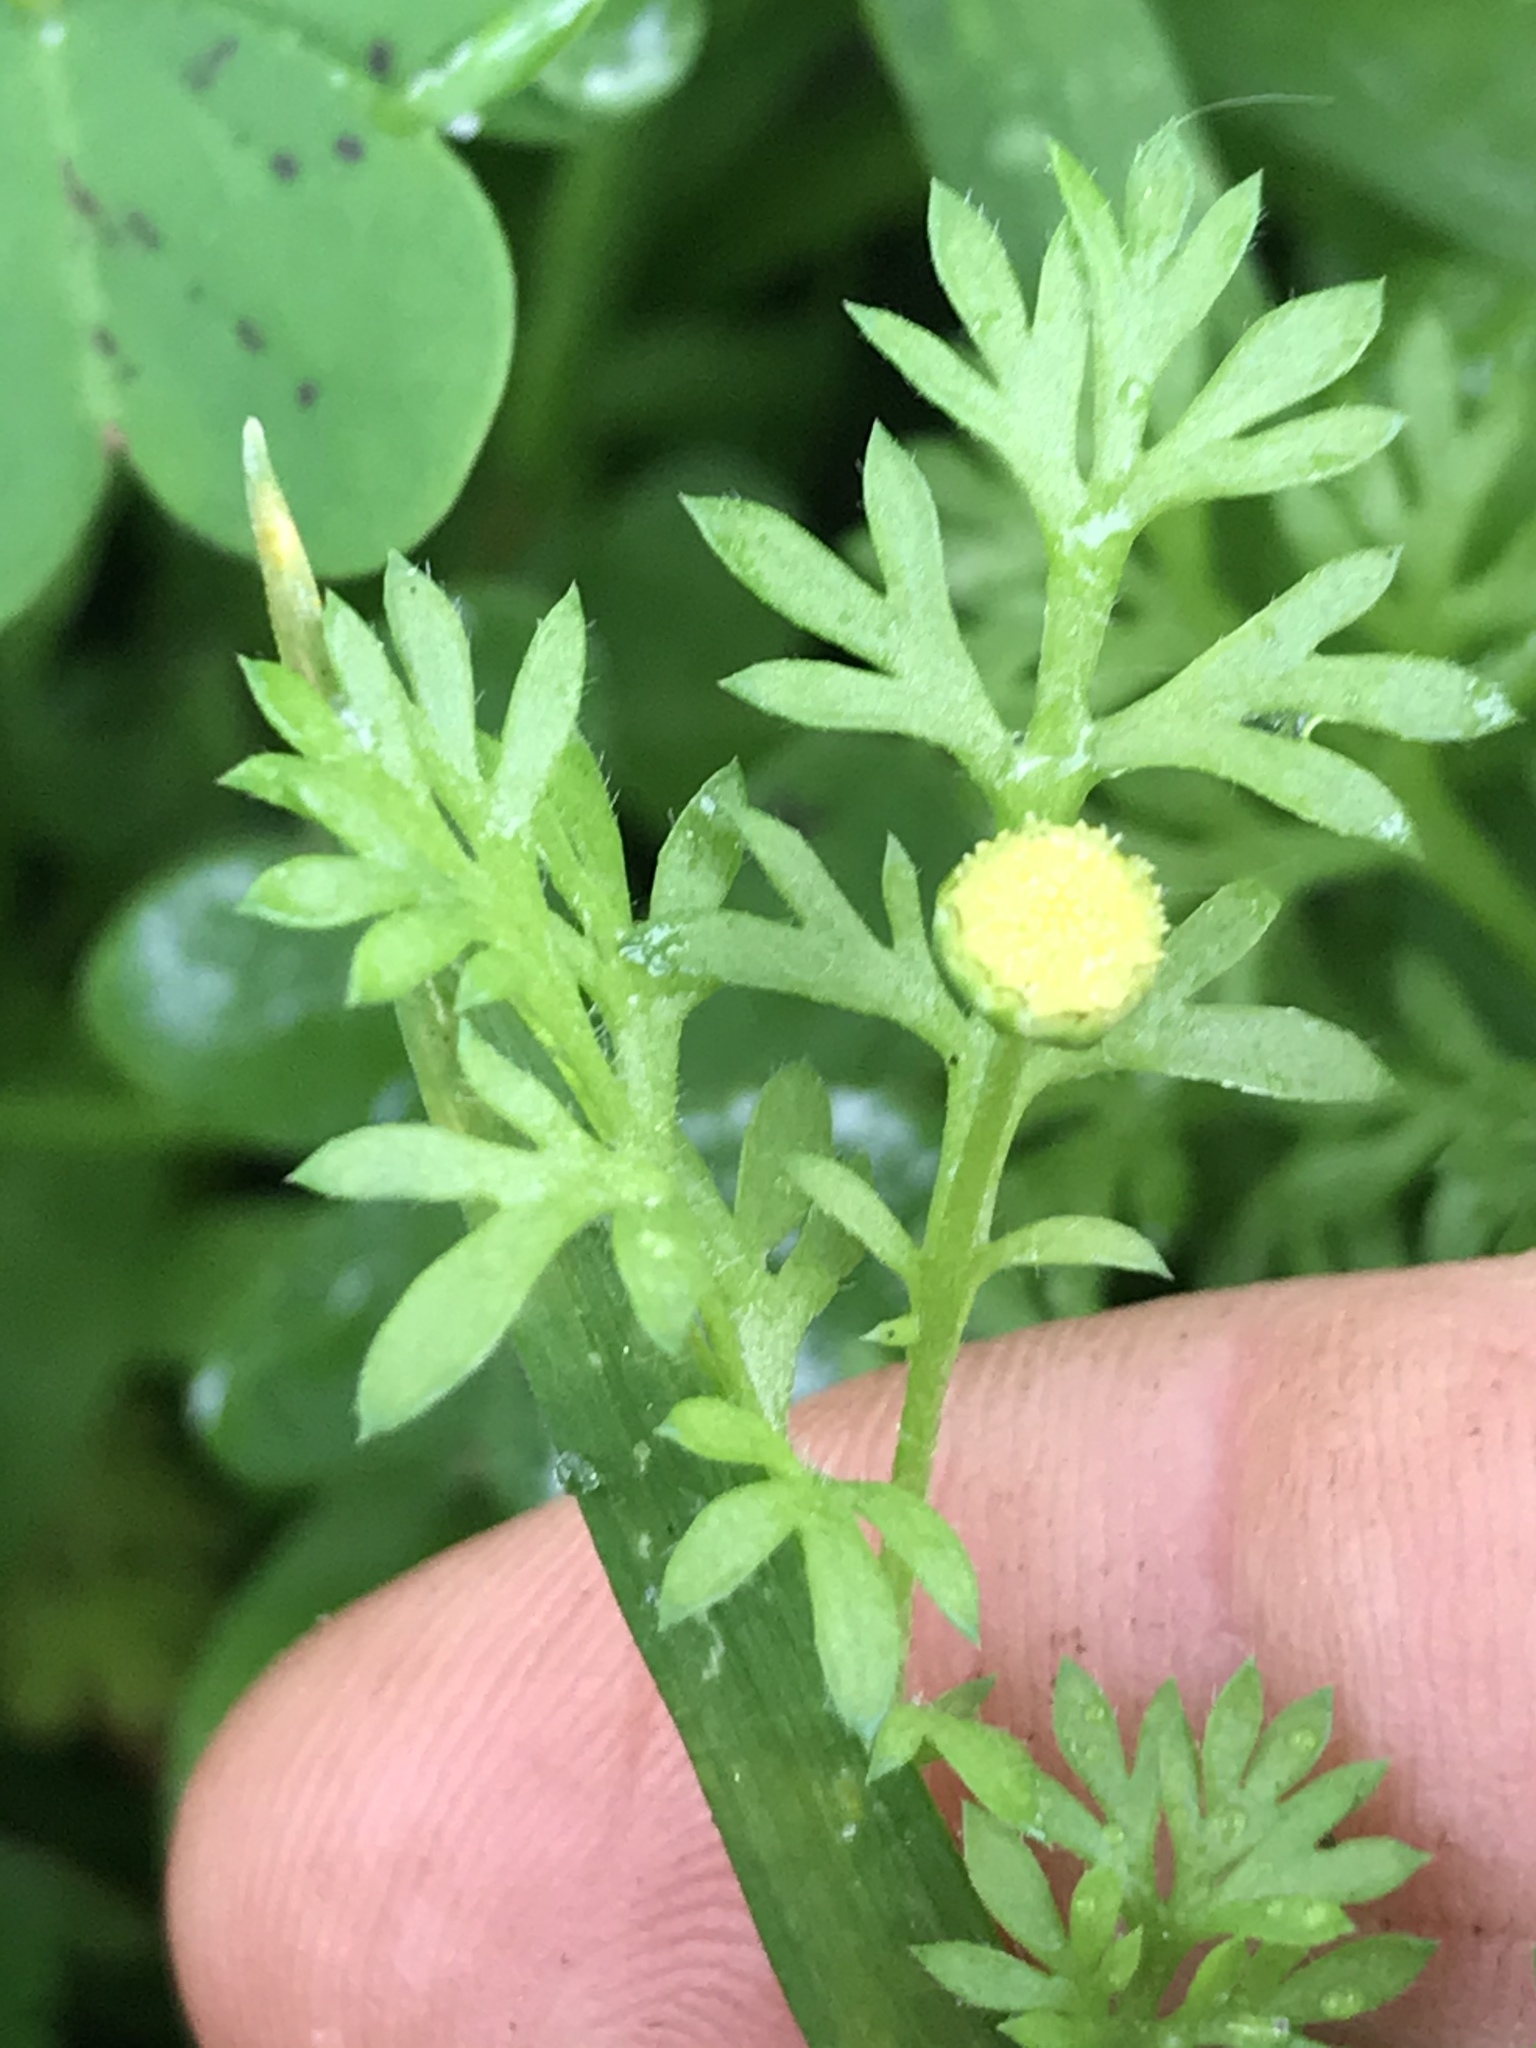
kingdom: Plantae
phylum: Tracheophyta
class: Magnoliopsida
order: Asterales
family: Asteraceae
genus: Cotula
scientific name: Cotula australis
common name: Australian waterbuttons
